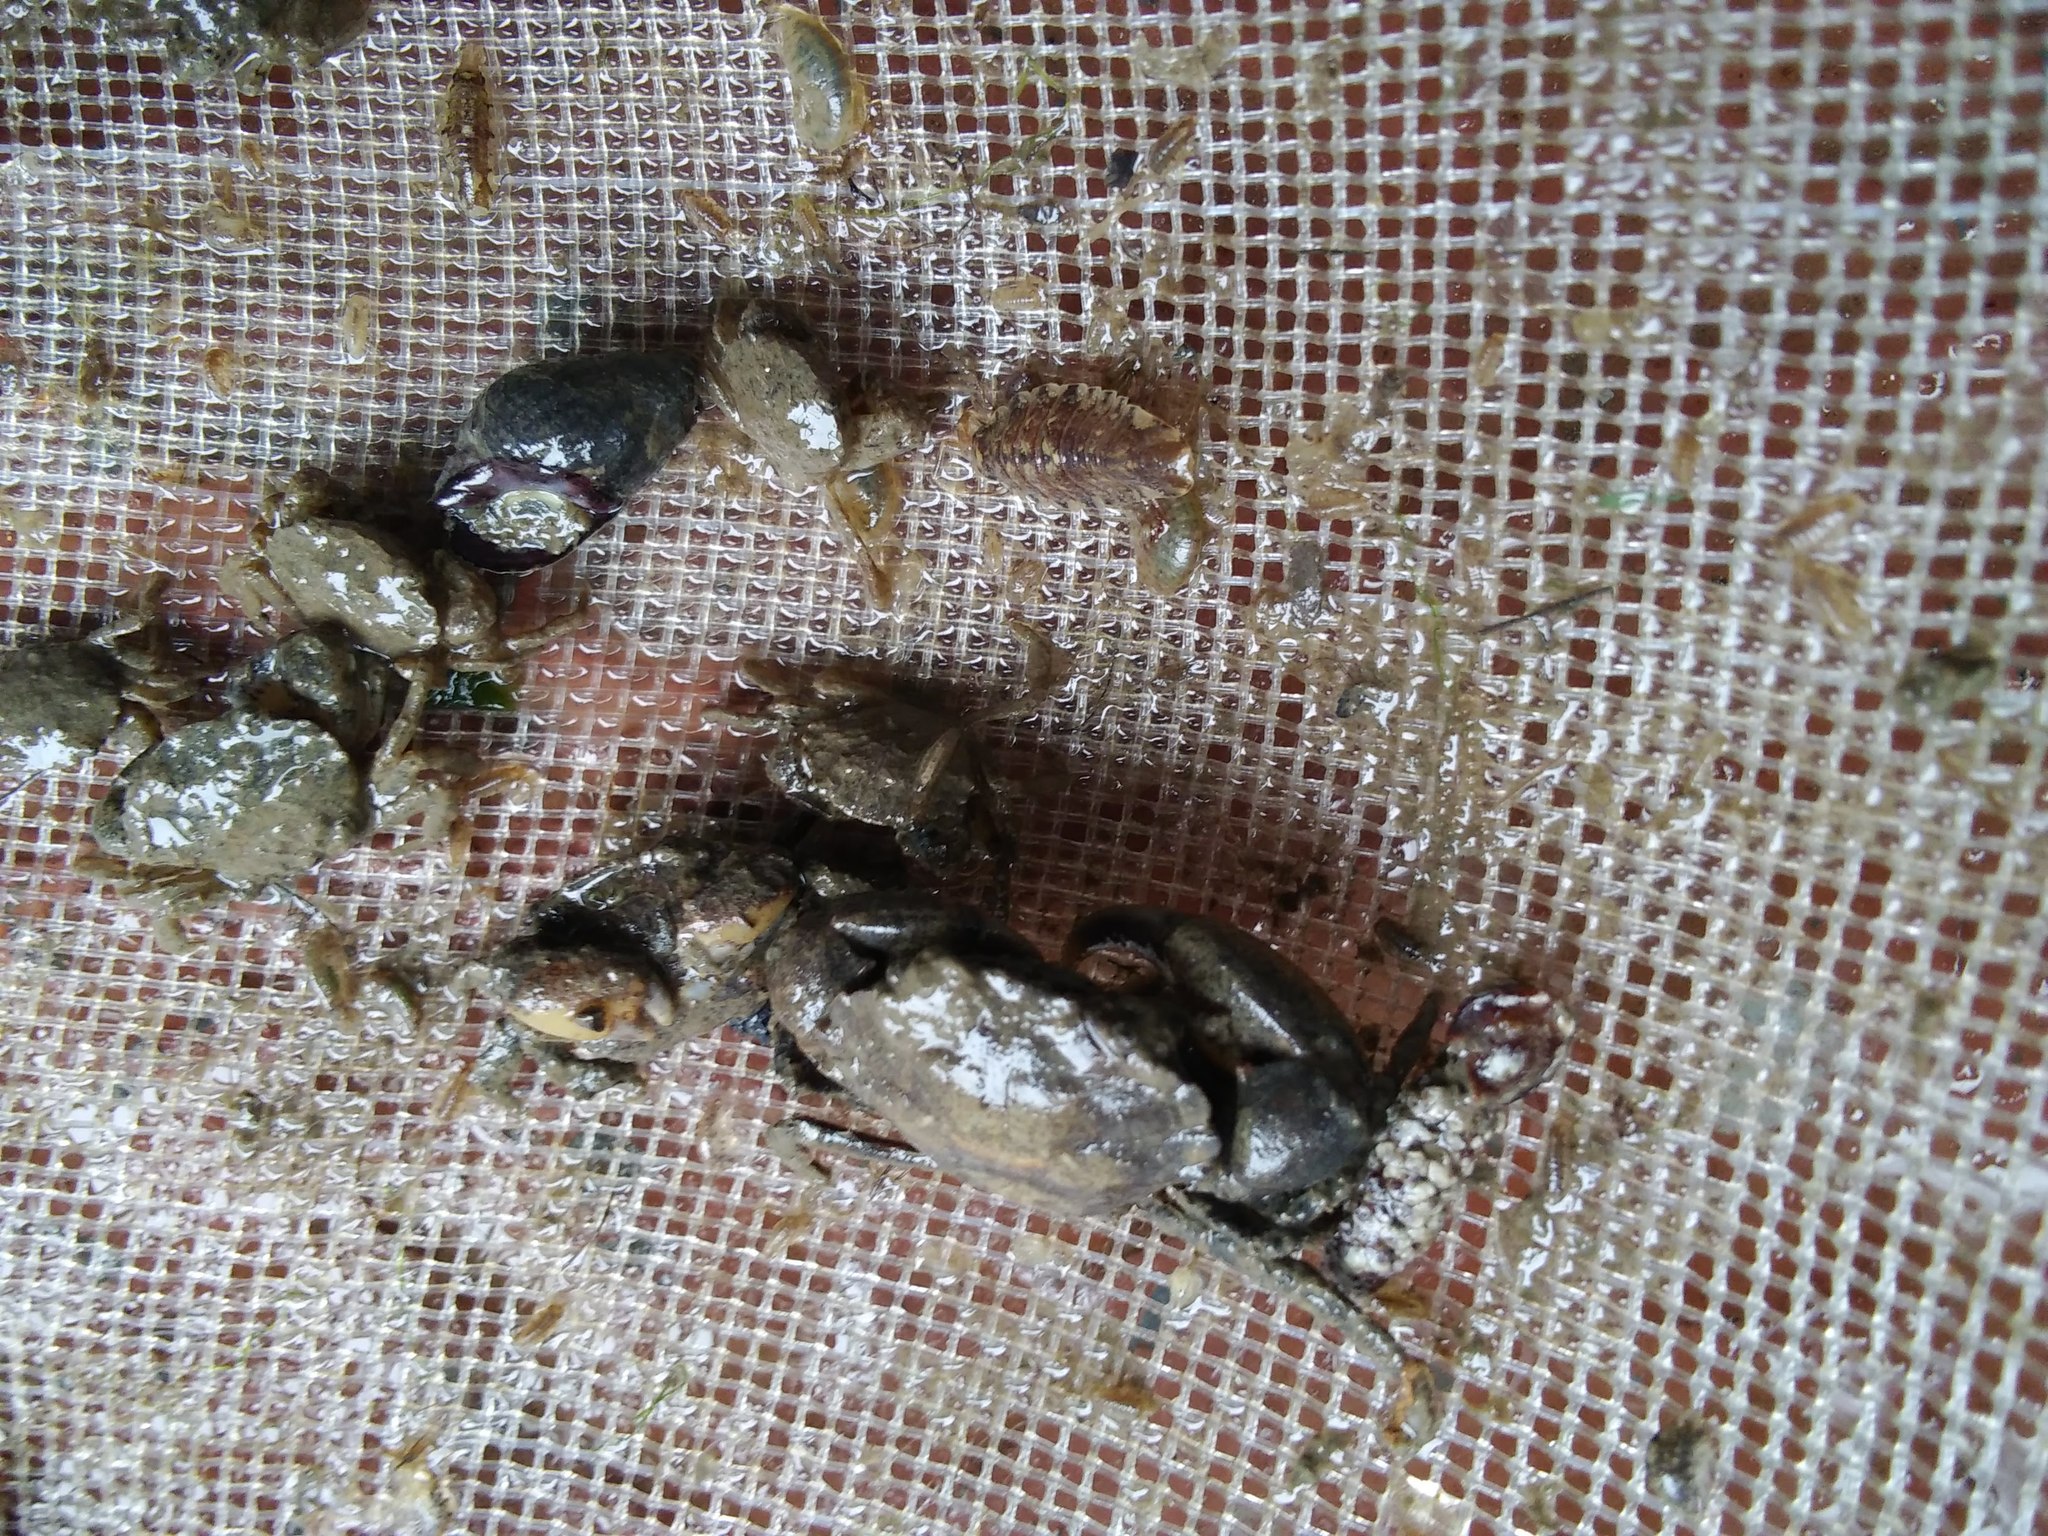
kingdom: Animalia
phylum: Arthropoda
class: Malacostraca
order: Decapoda
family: Varunidae
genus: Hemigrapsus
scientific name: Hemigrapsus sanguineus
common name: Asian shore crab
